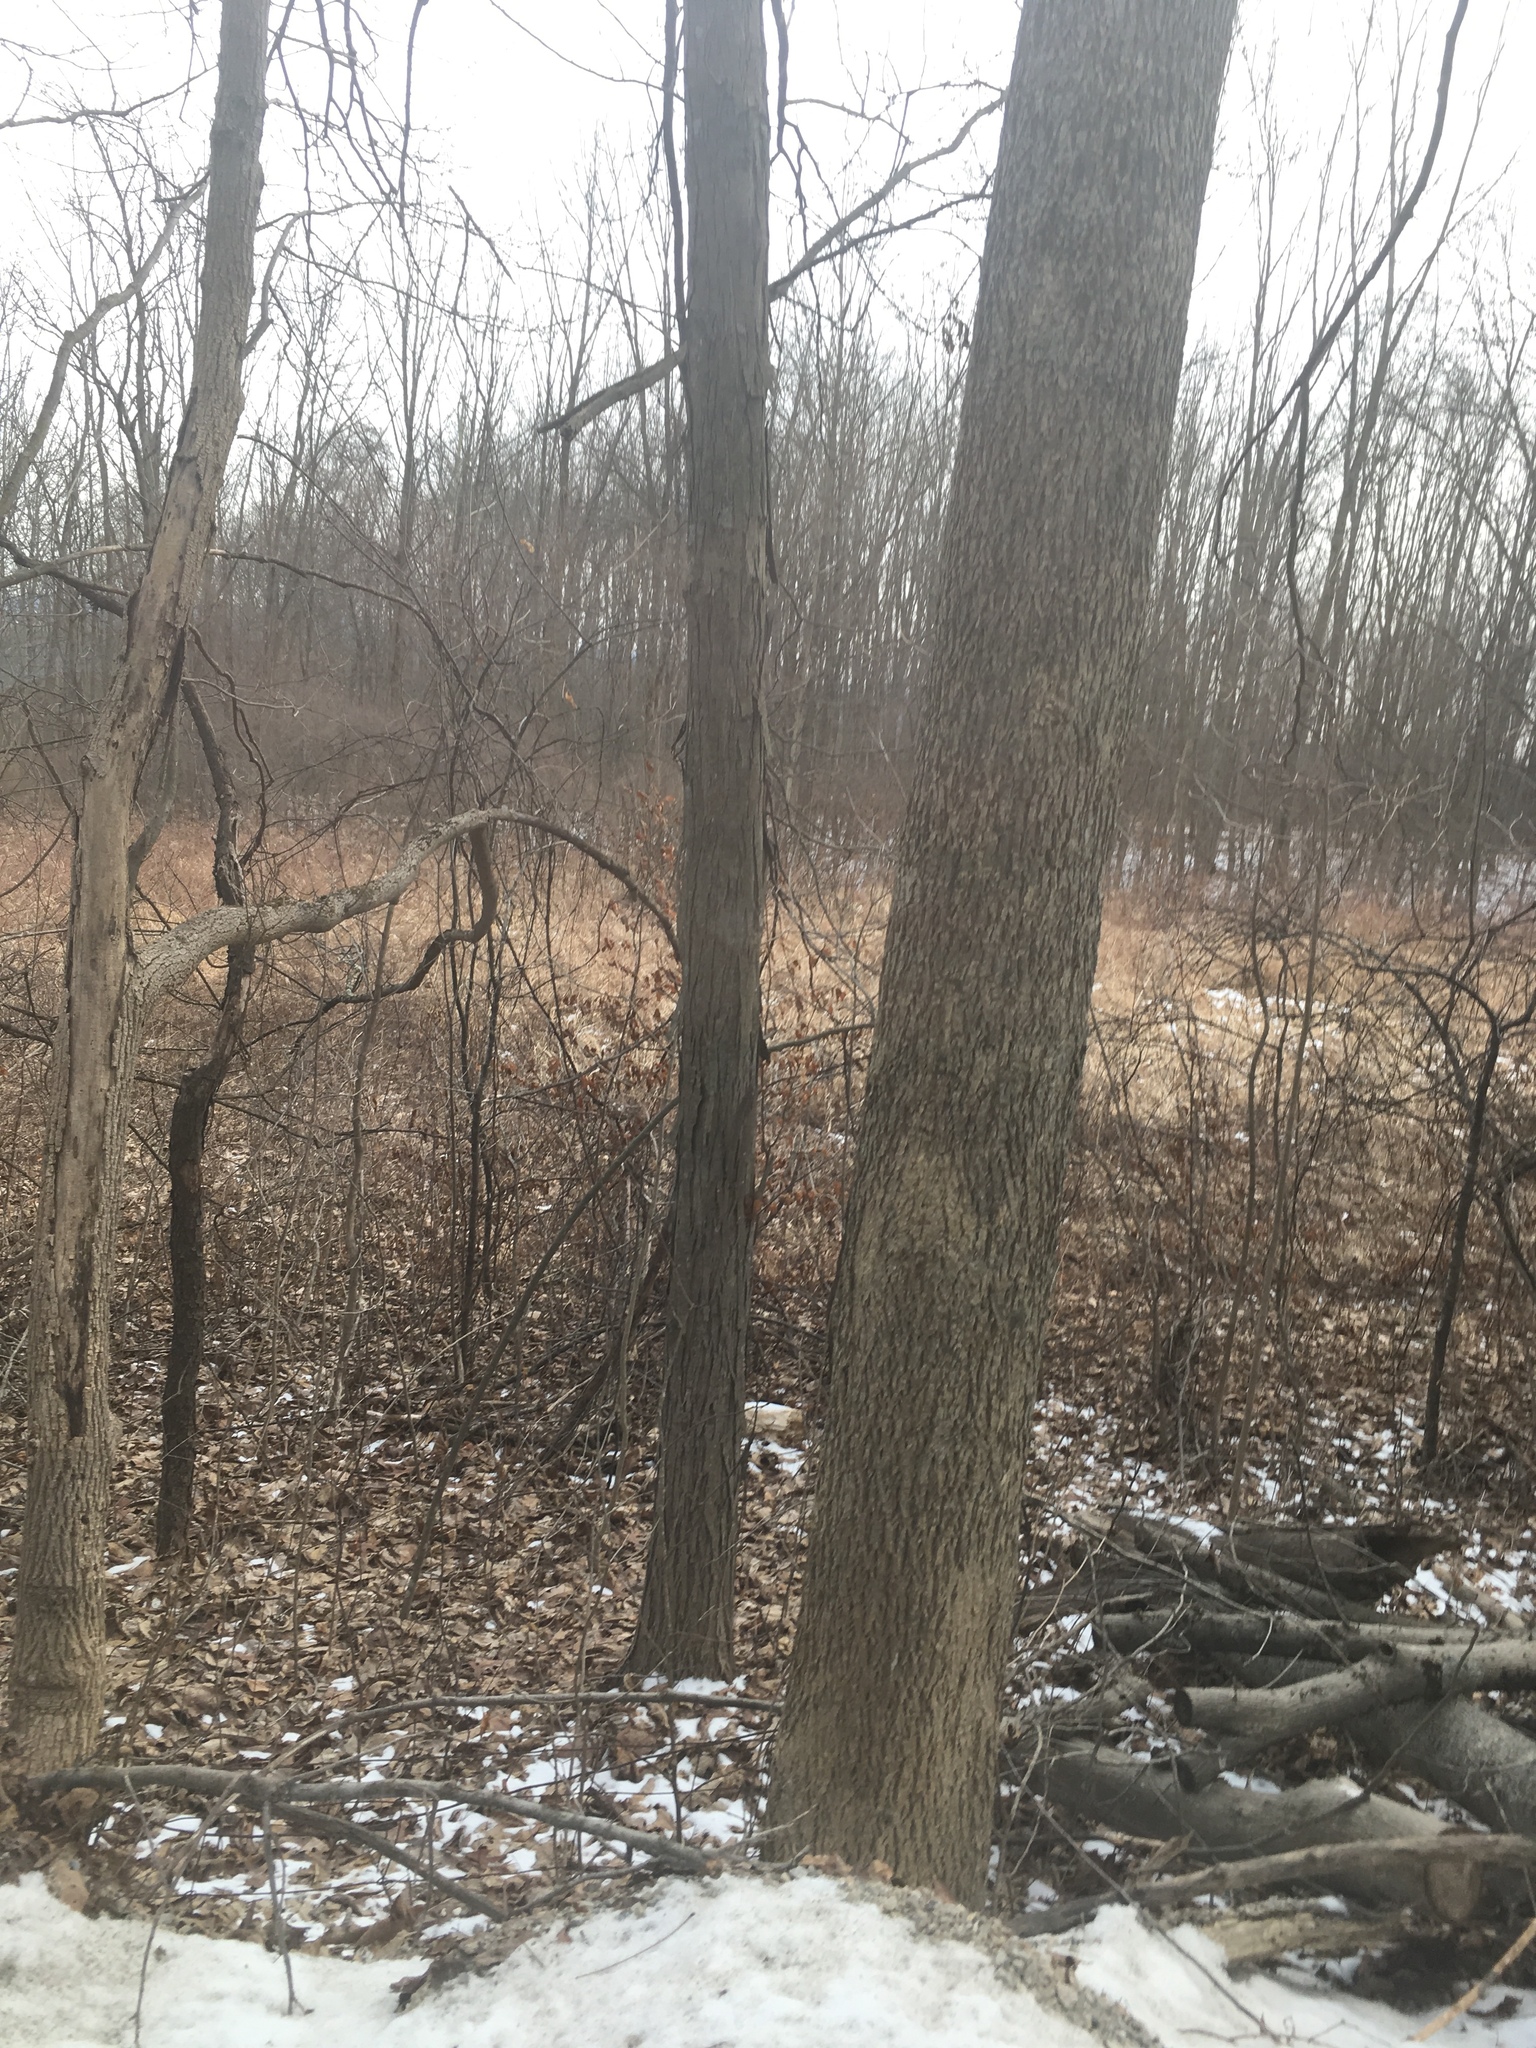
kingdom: Plantae
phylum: Tracheophyta
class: Magnoliopsida
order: Fagales
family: Juglandaceae
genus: Carya
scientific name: Carya ovata
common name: Shagbark hickory
